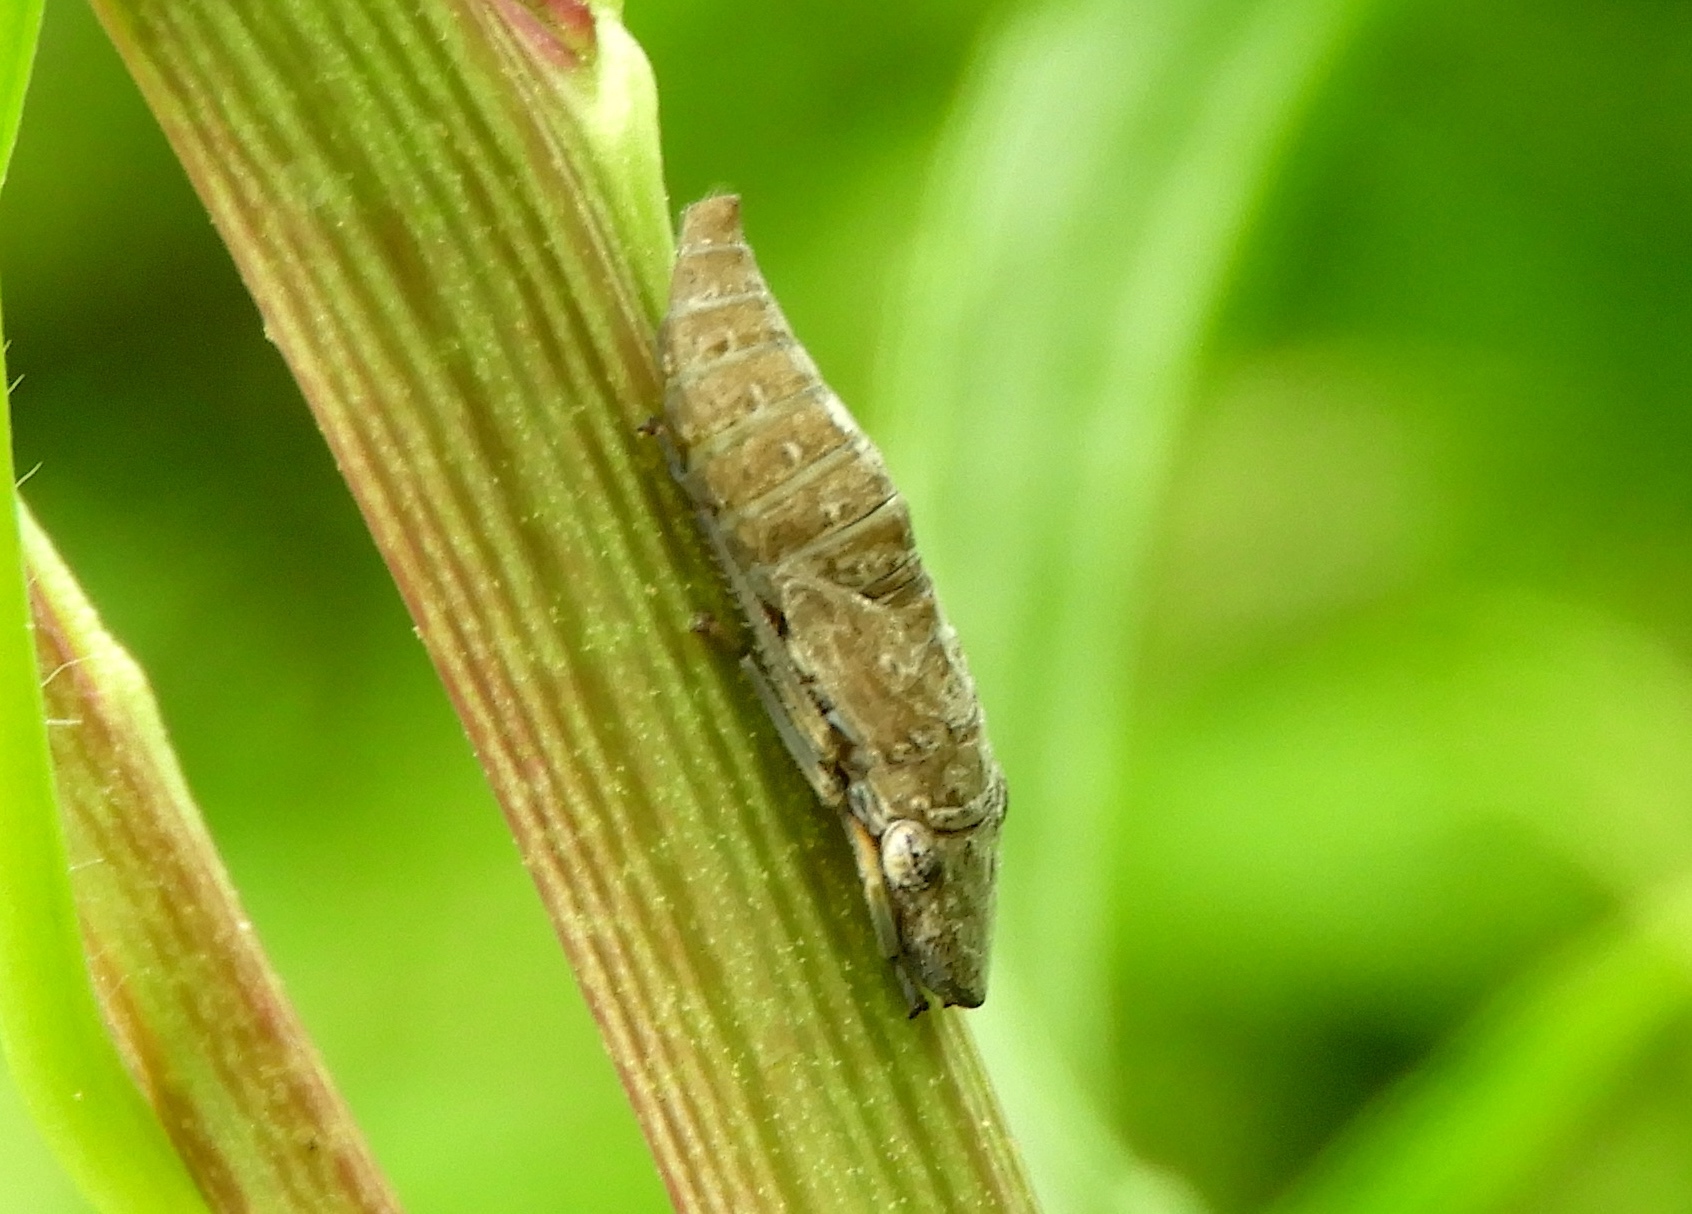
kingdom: Animalia
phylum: Arthropoda
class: Insecta
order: Hemiptera
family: Cicadellidae
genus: Homalodisca
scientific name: Homalodisca
